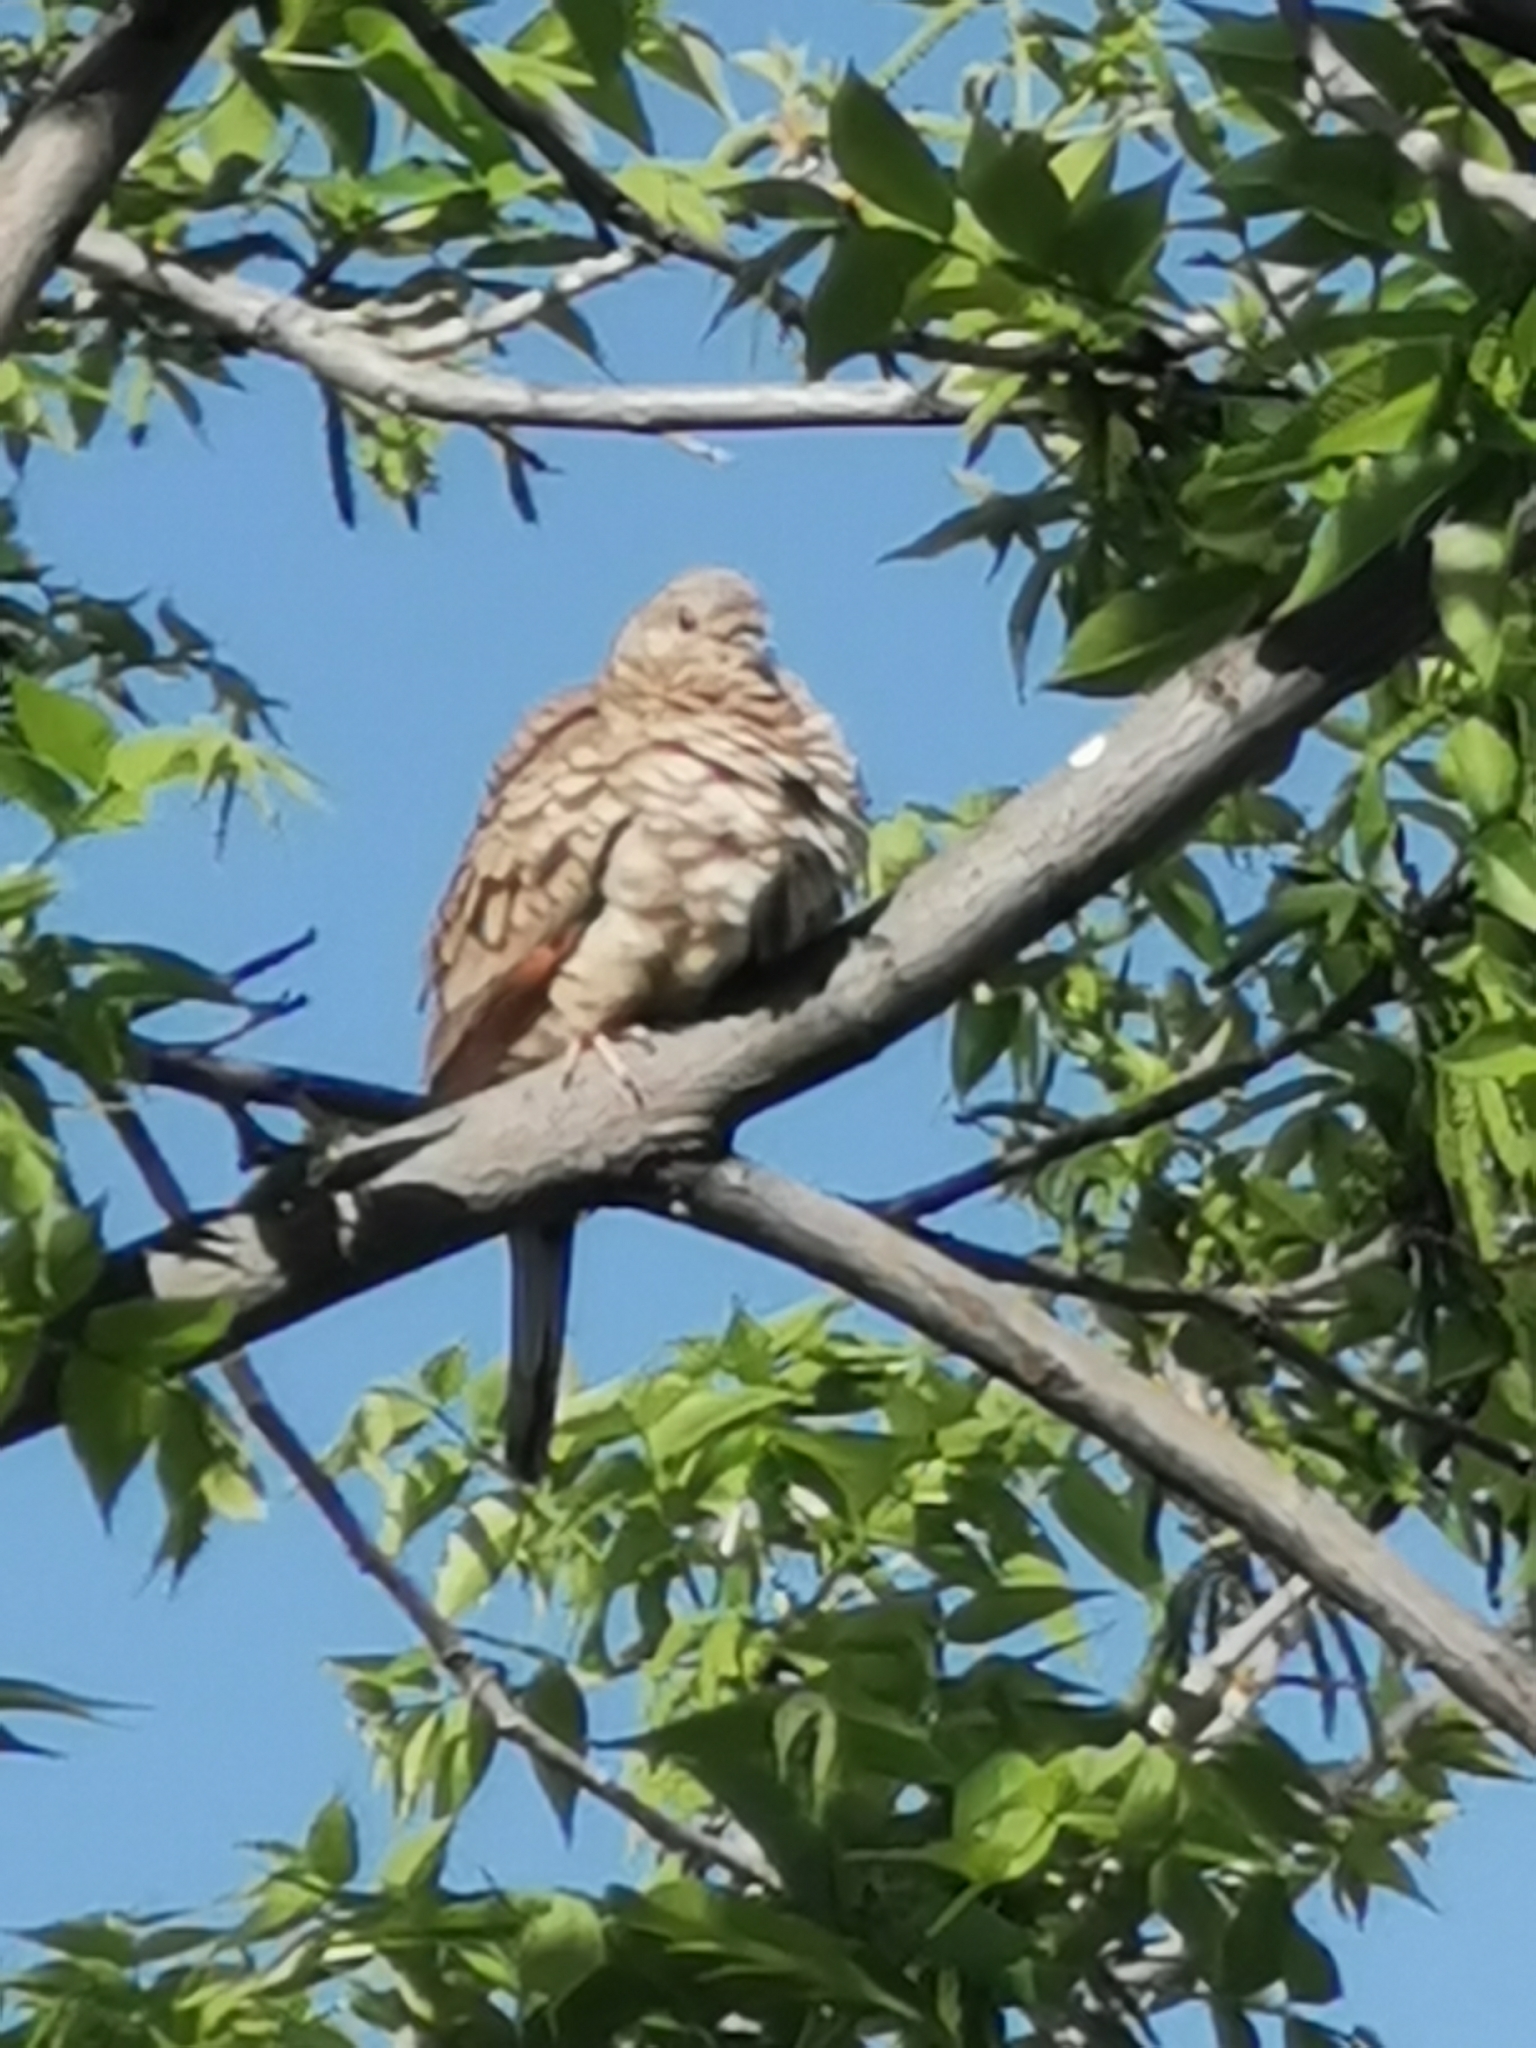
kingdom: Animalia
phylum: Chordata
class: Aves
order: Columbiformes
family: Columbidae
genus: Columbina
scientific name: Columbina inca
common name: Inca dove
